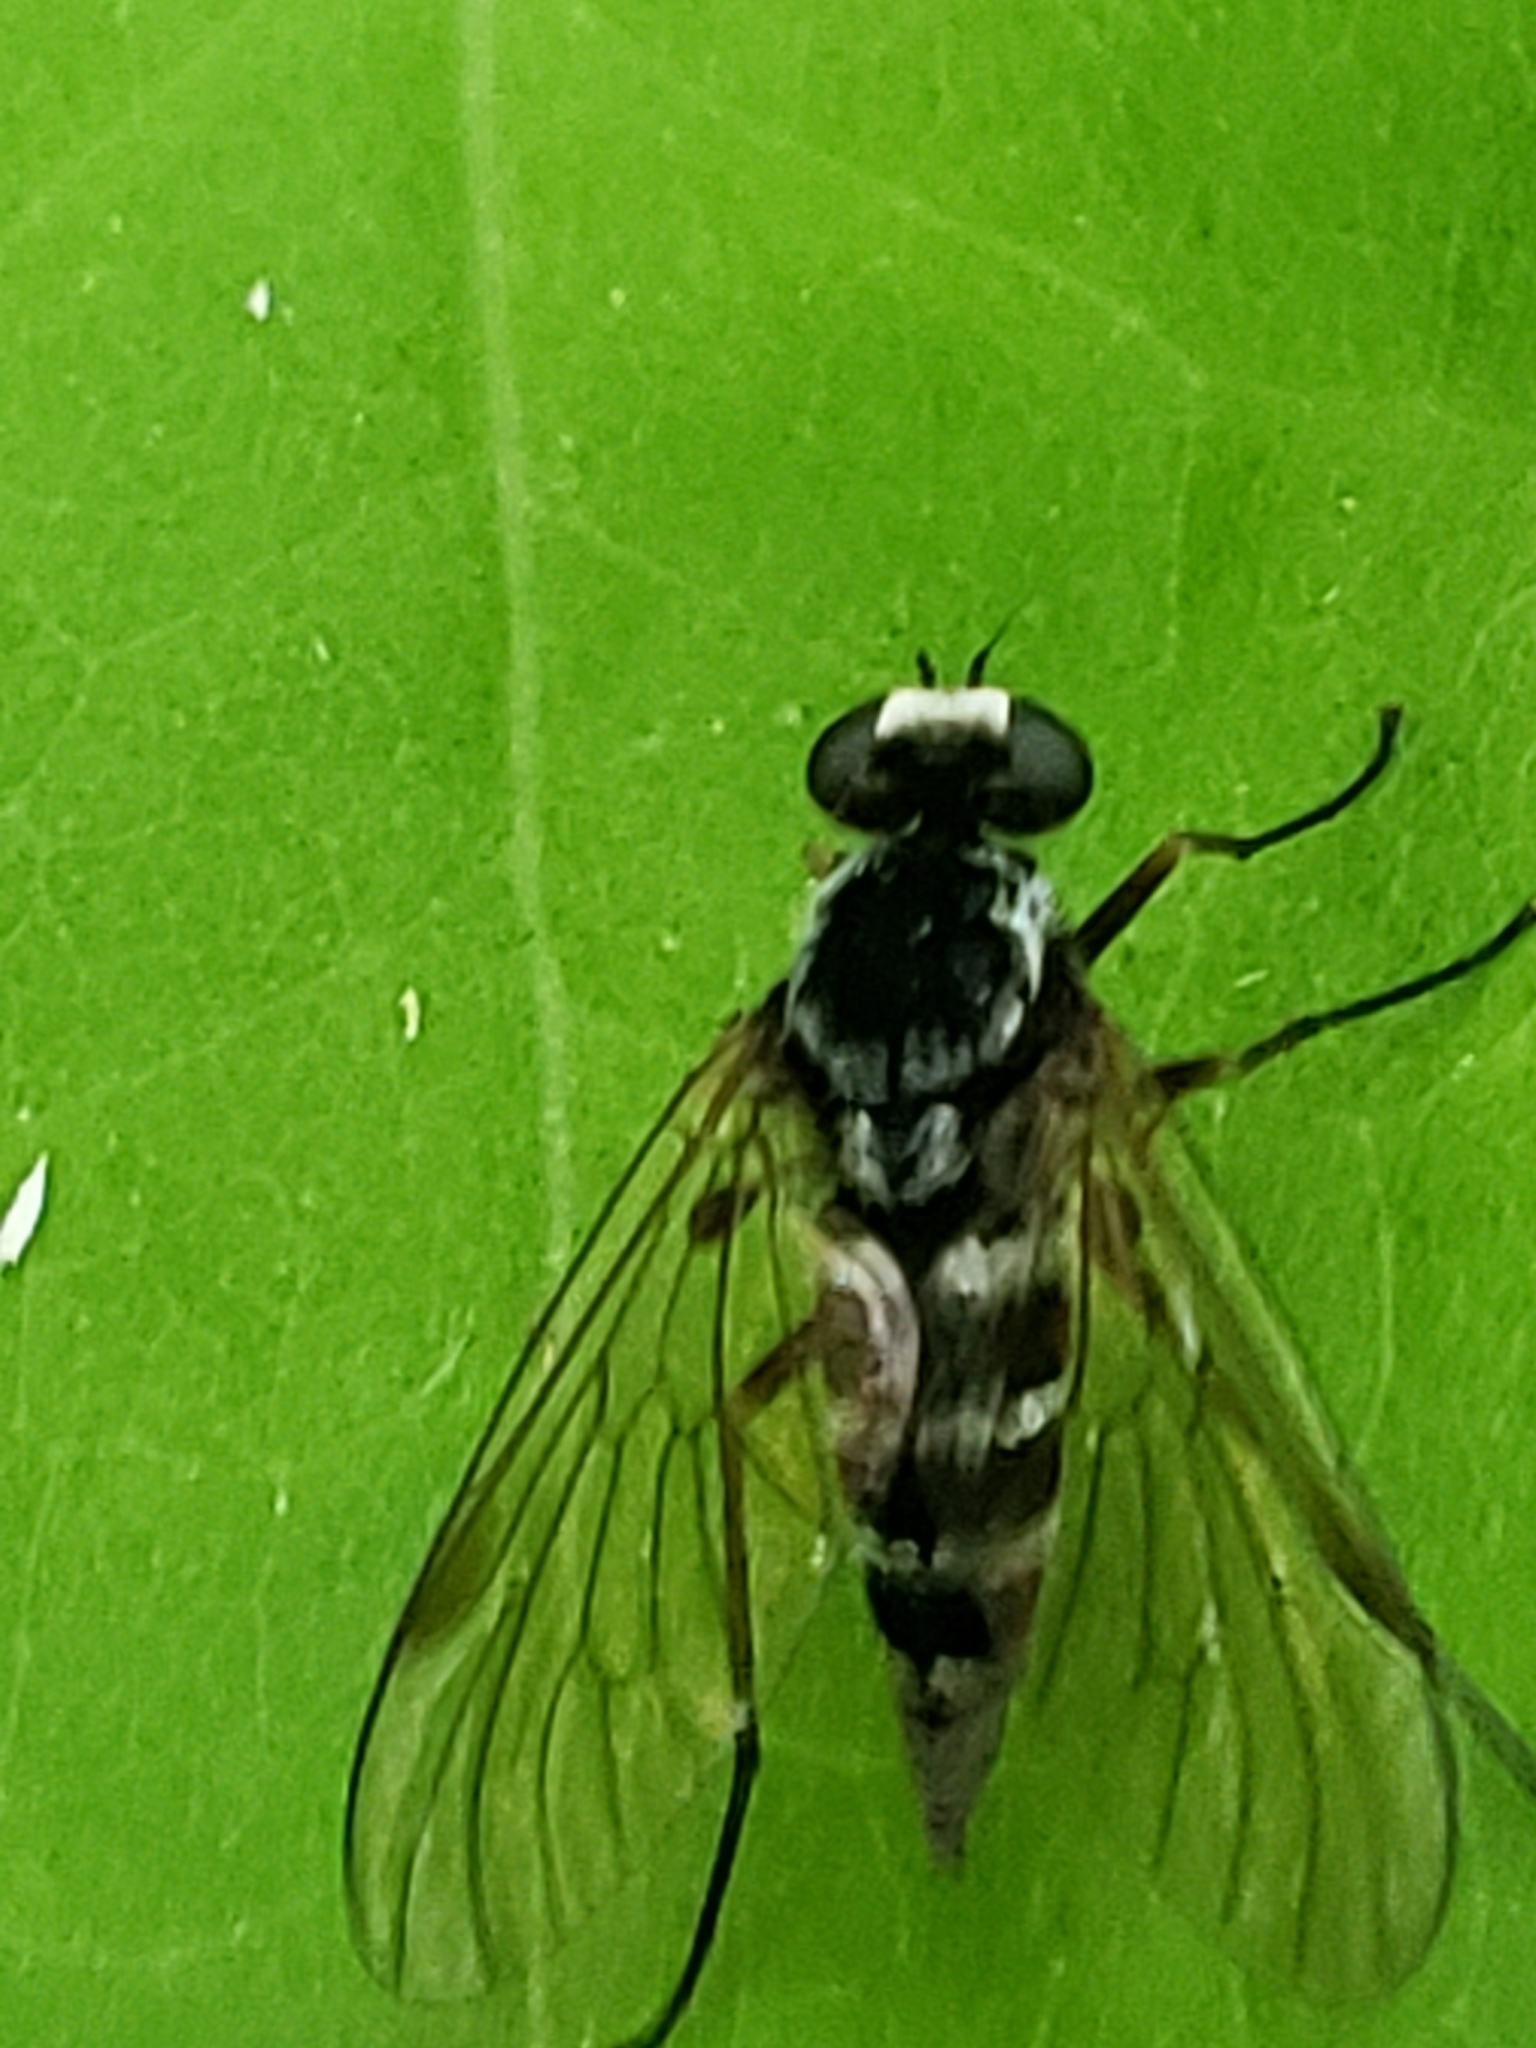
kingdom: Animalia
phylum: Arthropoda
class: Insecta
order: Diptera
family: Rhagionidae
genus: Chrysopilus
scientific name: Chrysopilus fasciatus
